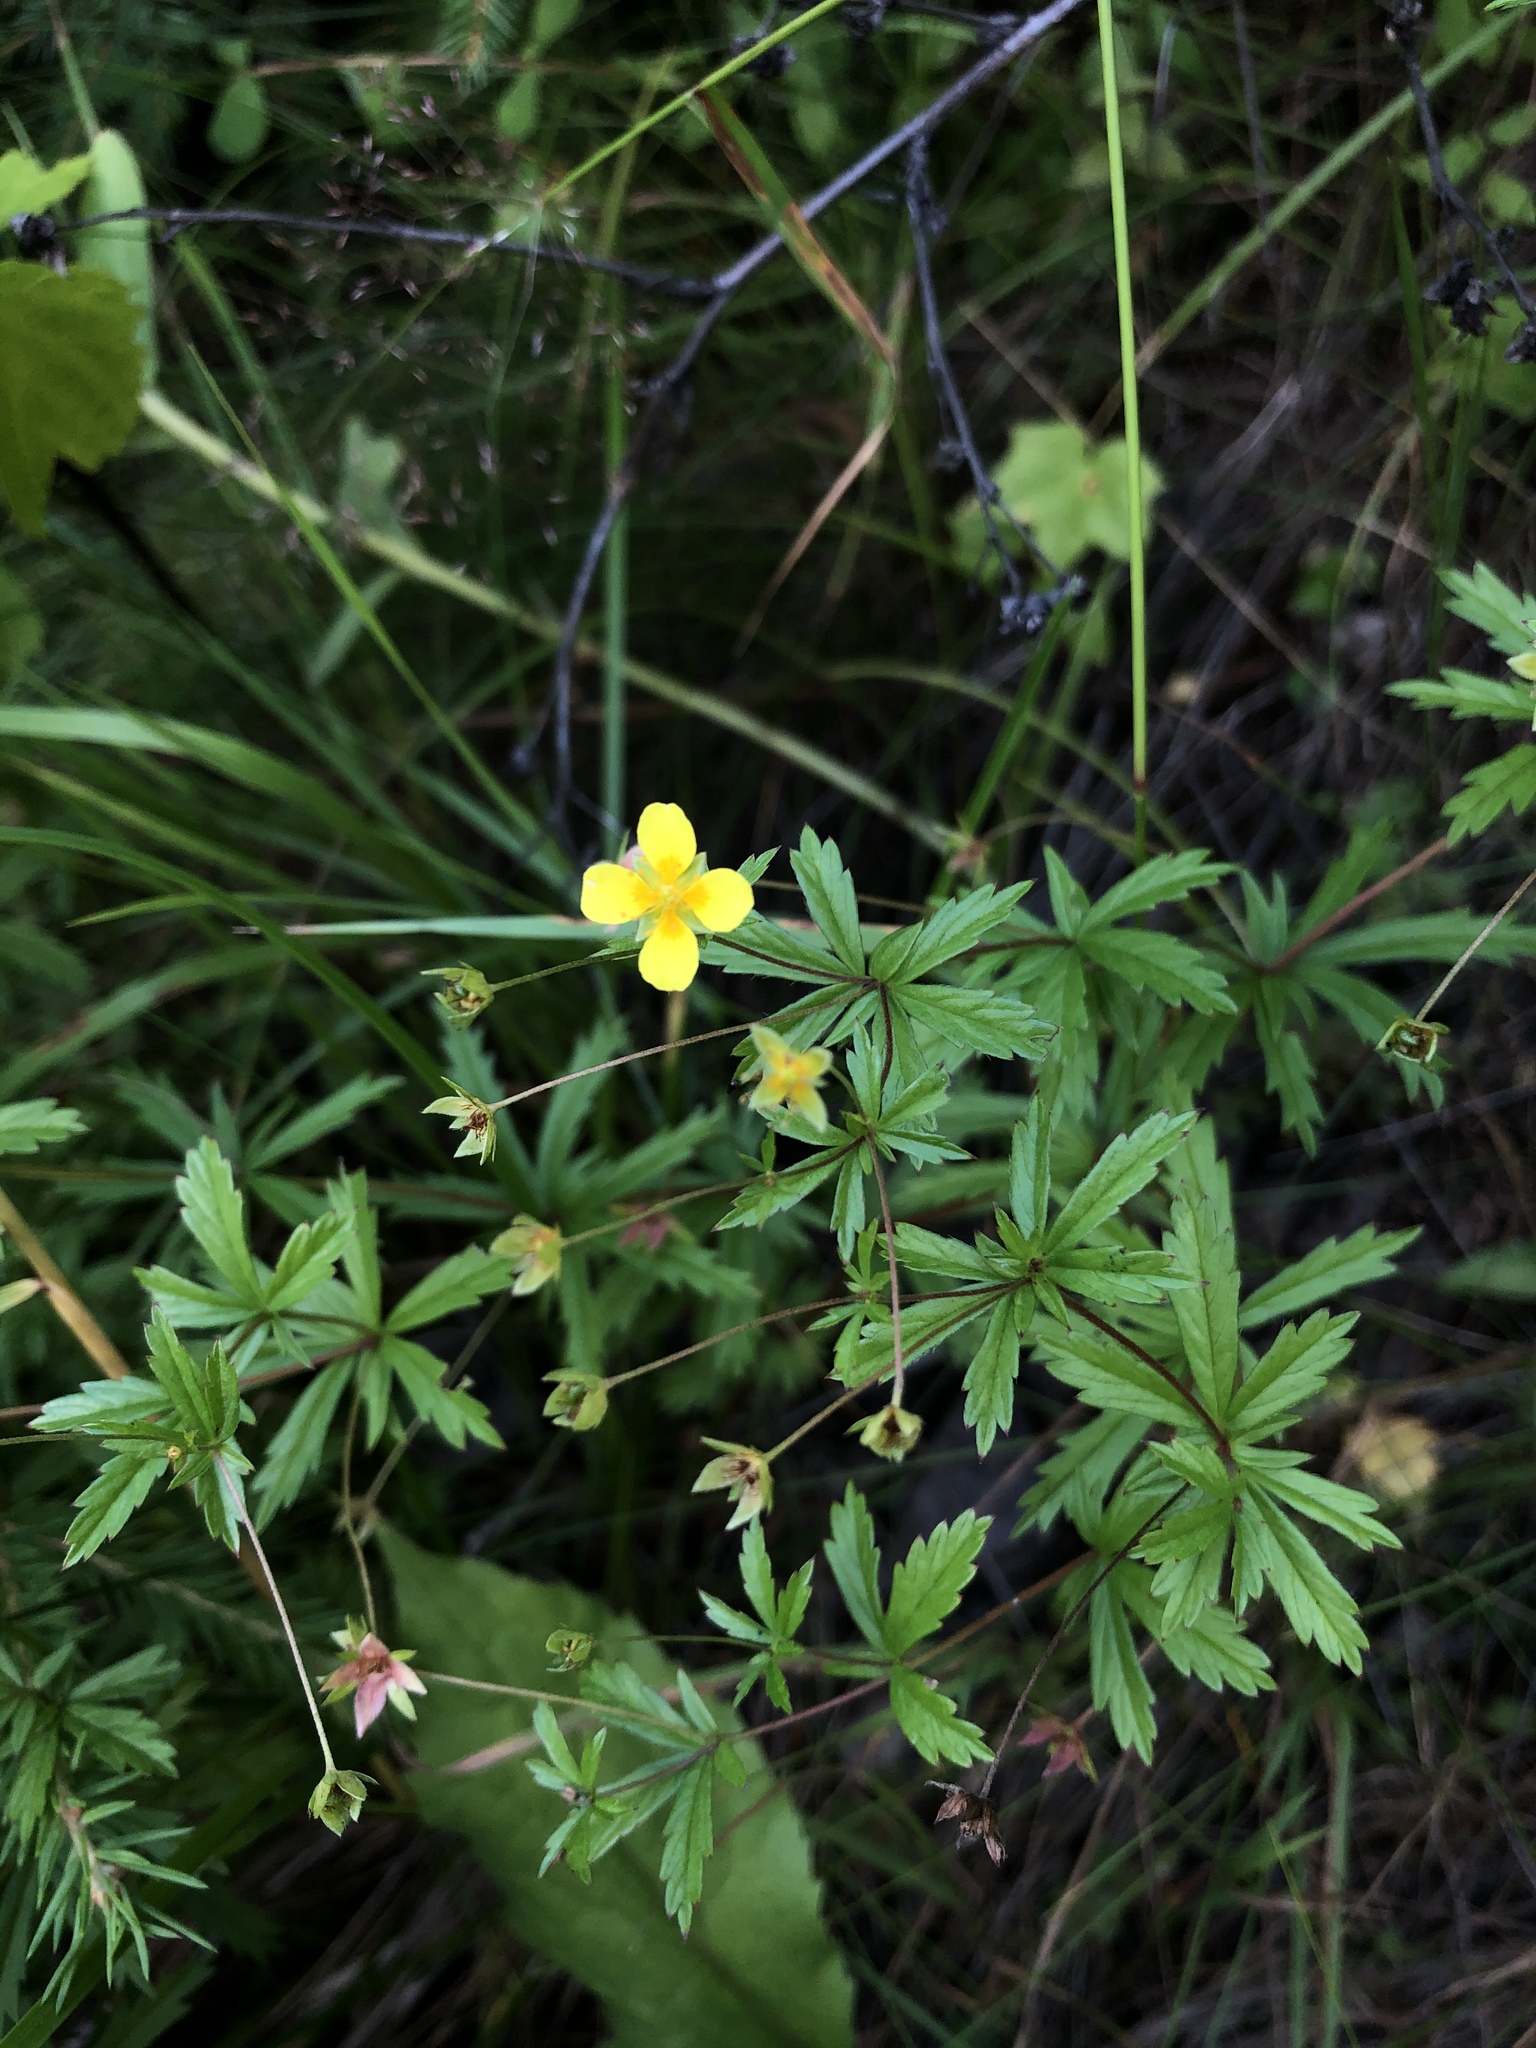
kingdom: Plantae
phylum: Tracheophyta
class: Magnoliopsida
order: Rosales
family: Rosaceae
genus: Potentilla
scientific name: Potentilla erecta
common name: Tormentil
